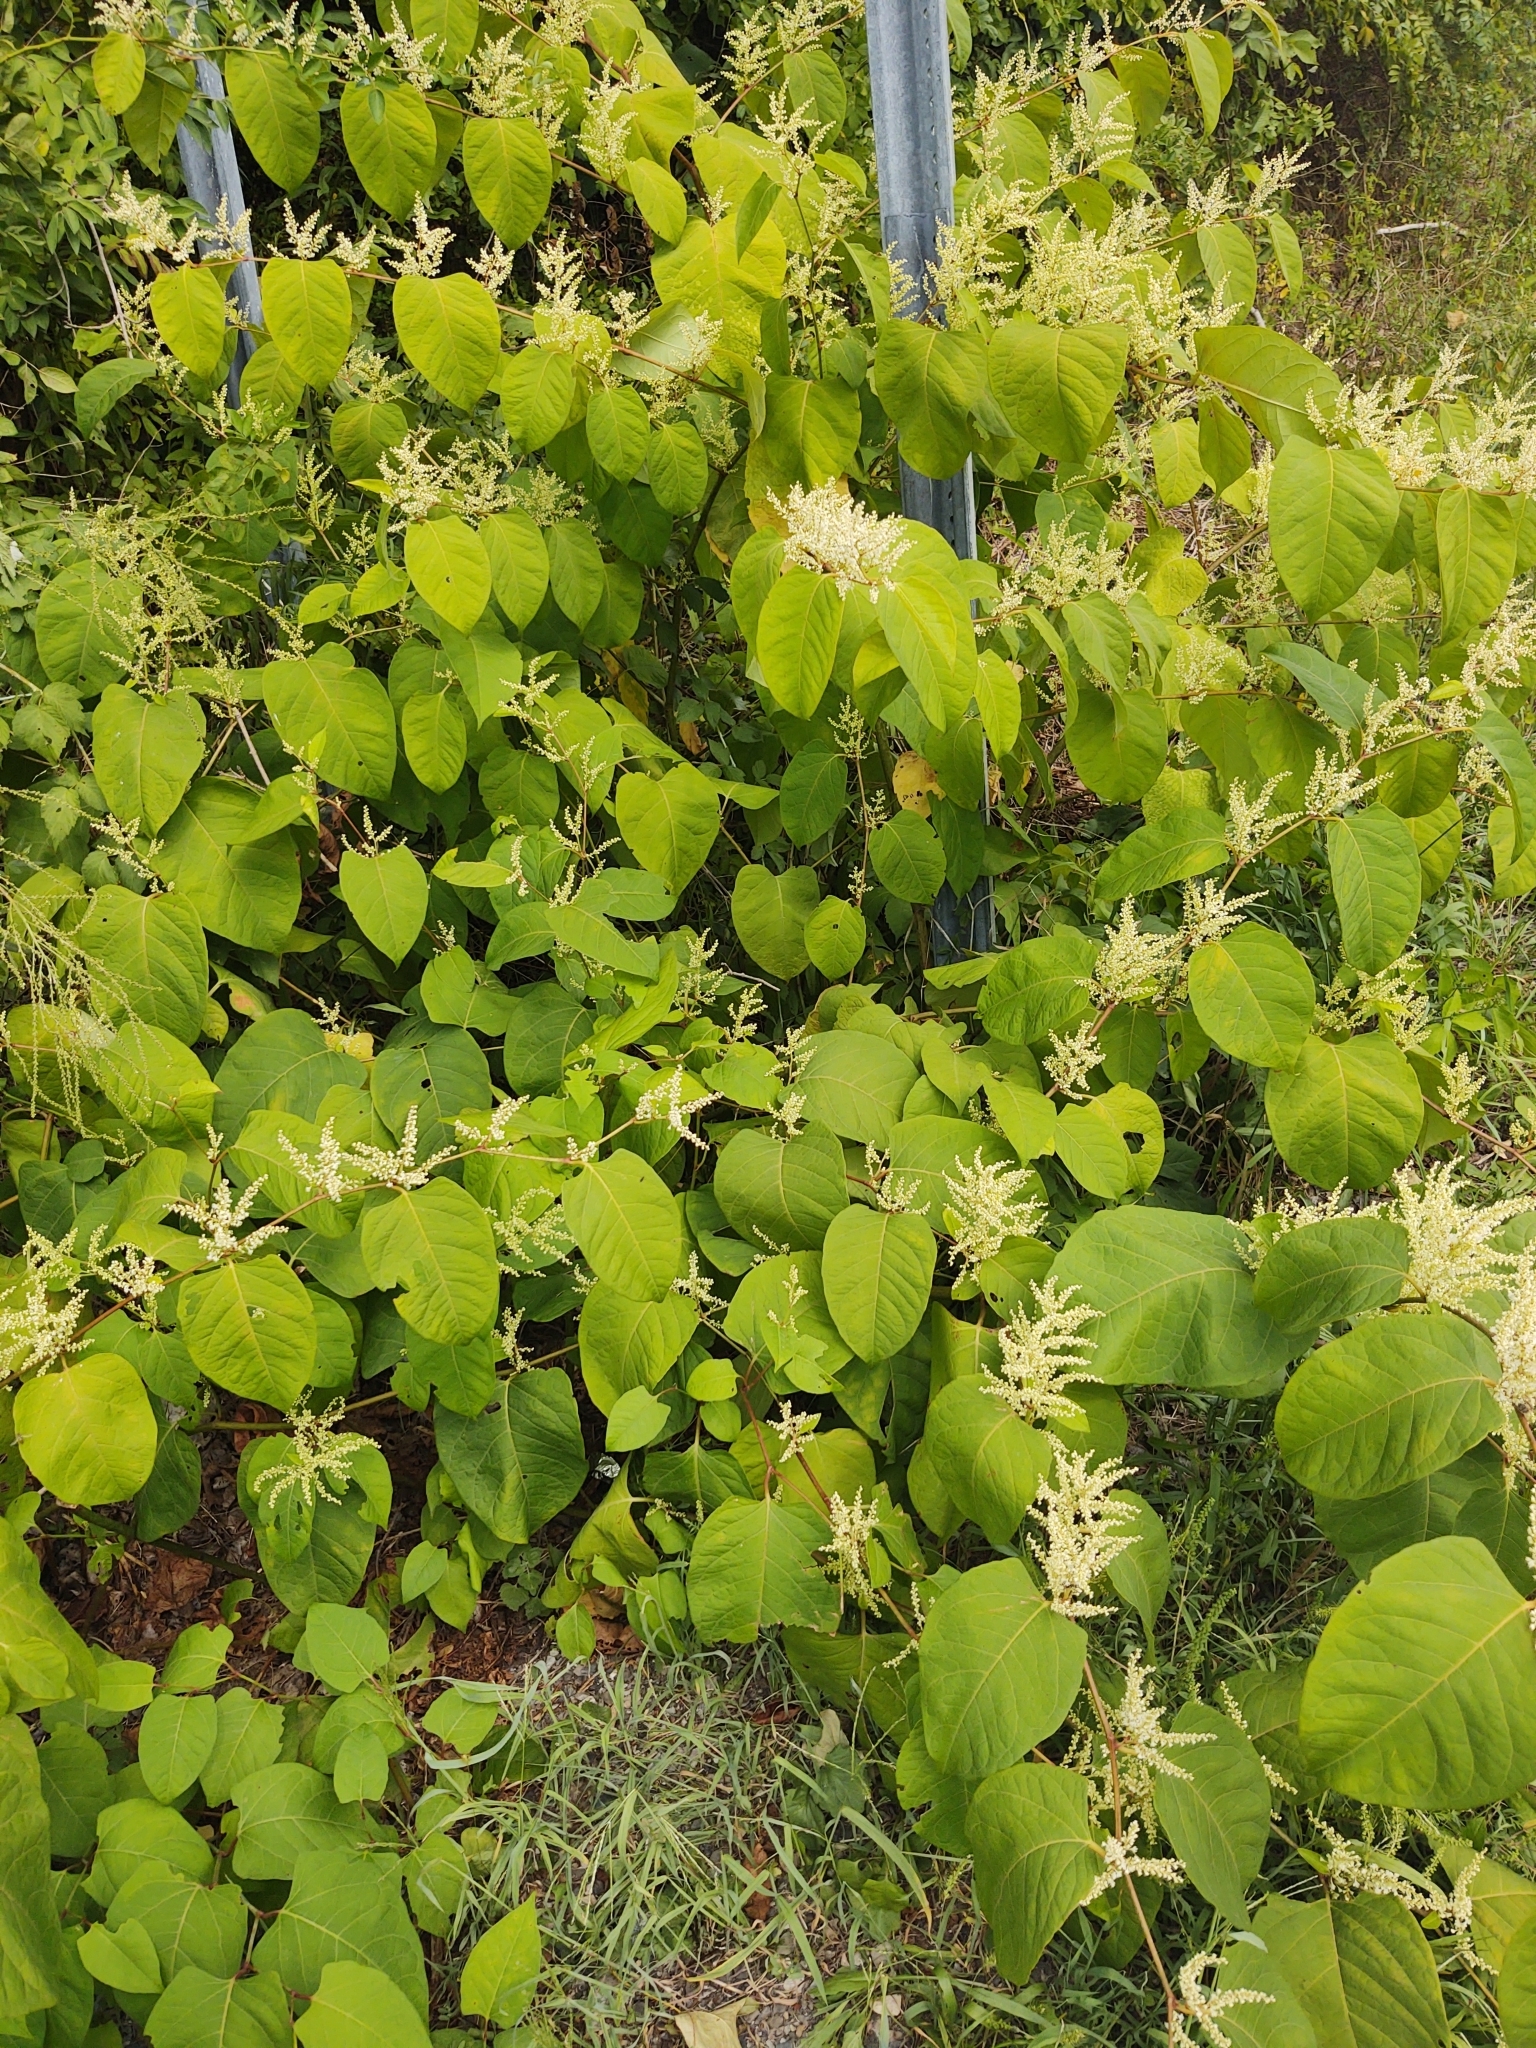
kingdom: Plantae
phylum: Tracheophyta
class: Magnoliopsida
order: Caryophyllales
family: Polygonaceae
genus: Reynoutria
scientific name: Reynoutria japonica
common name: Japanese knotweed
